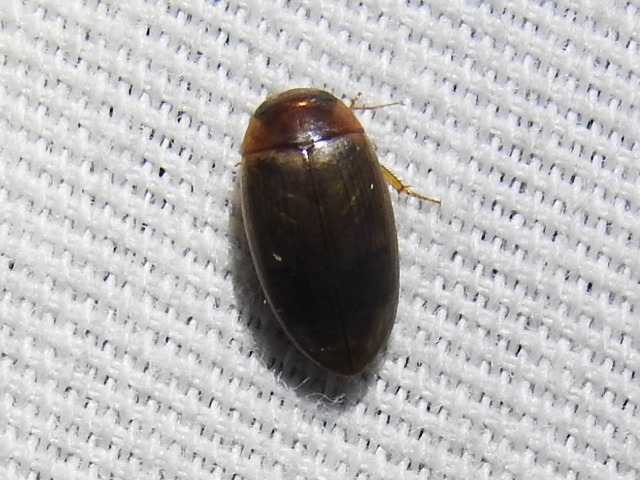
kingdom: Animalia
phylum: Arthropoda
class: Insecta
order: Coleoptera
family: Dytiscidae
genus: Copelatus
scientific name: Copelatus chevrolati
